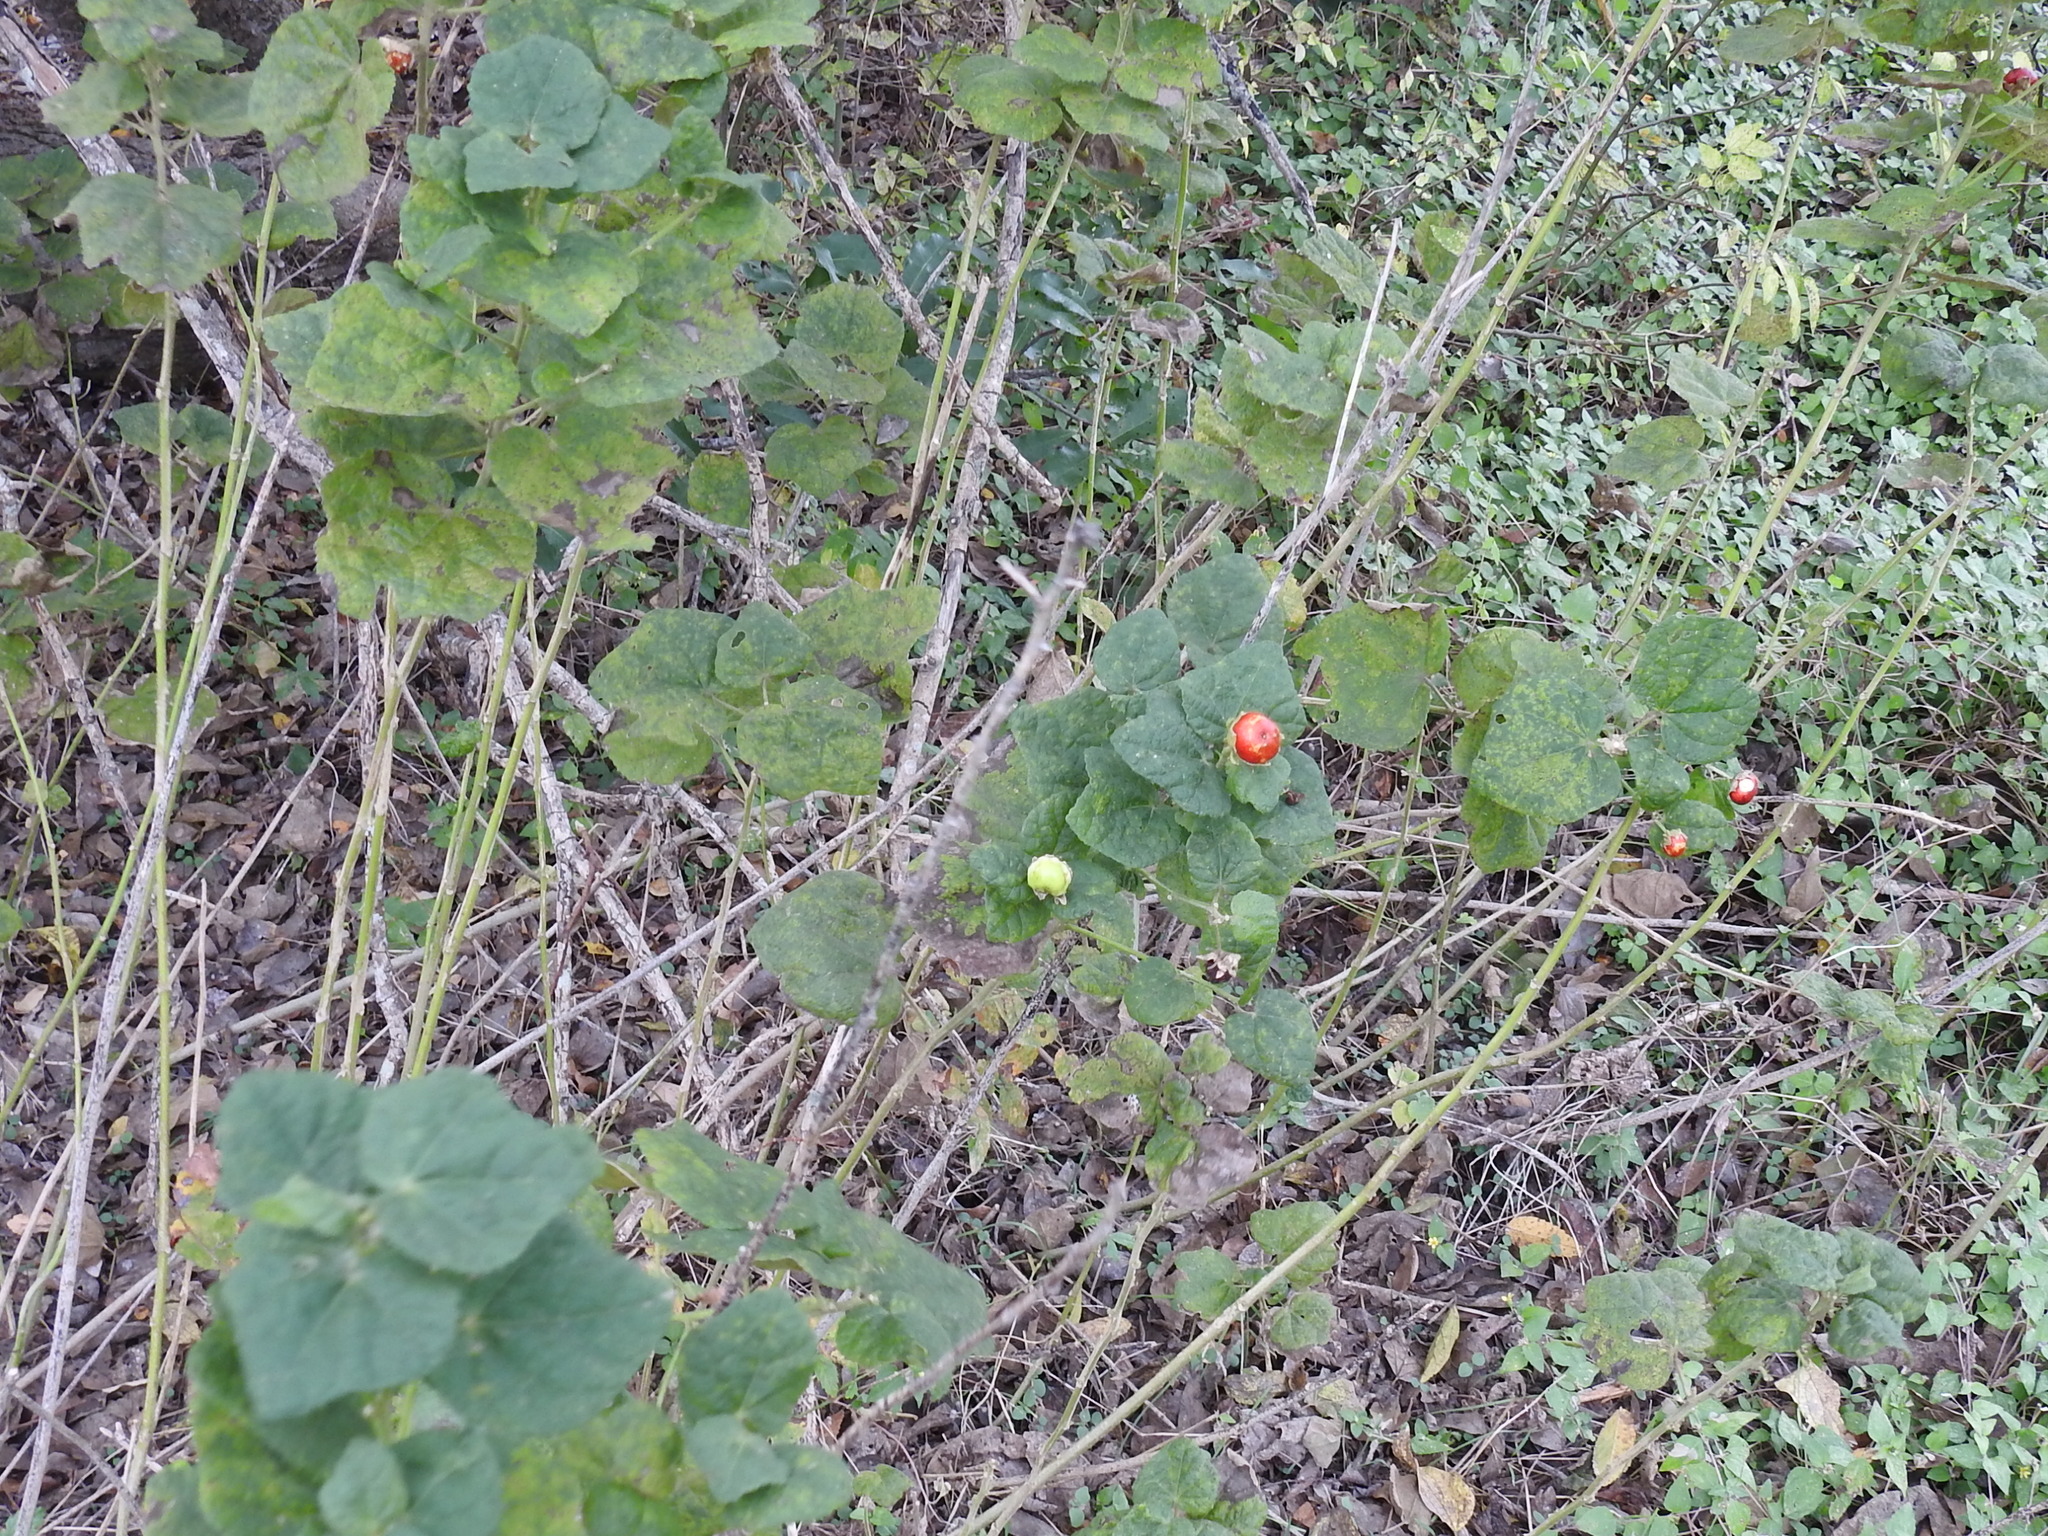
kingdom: Plantae
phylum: Tracheophyta
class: Magnoliopsida
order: Malvales
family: Malvaceae
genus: Malvaviscus
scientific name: Malvaviscus arboreus
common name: Wax mallow
